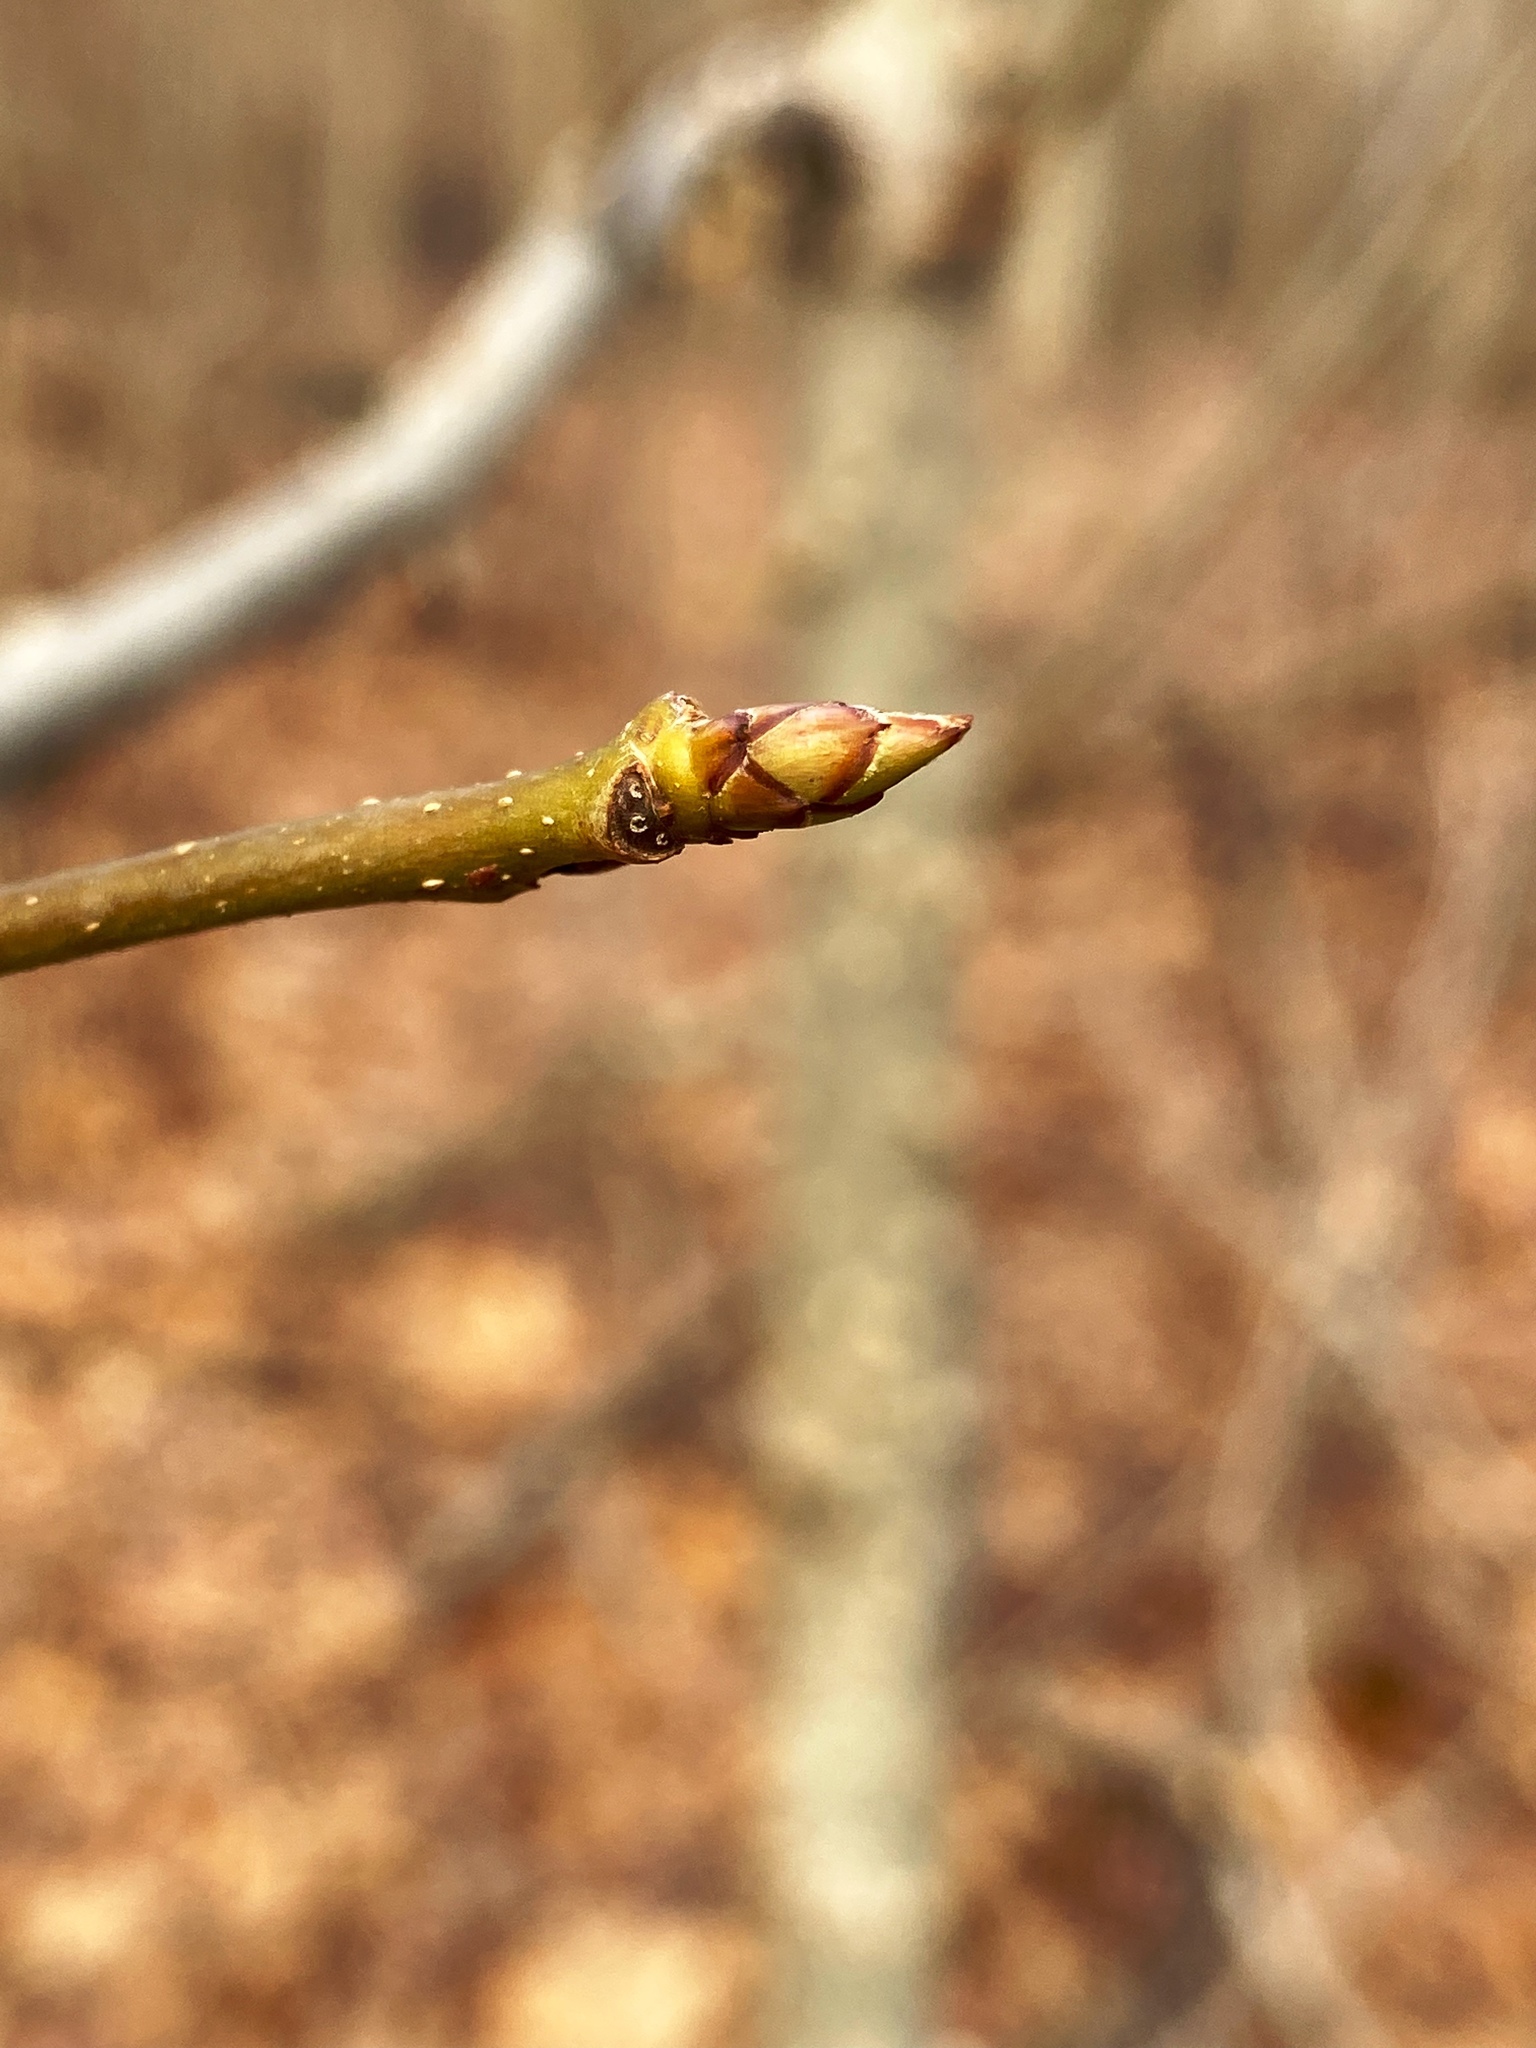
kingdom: Plantae
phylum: Tracheophyta
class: Magnoliopsida
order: Saxifragales
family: Altingiaceae
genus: Liquidambar
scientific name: Liquidambar styraciflua
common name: Sweet gum
